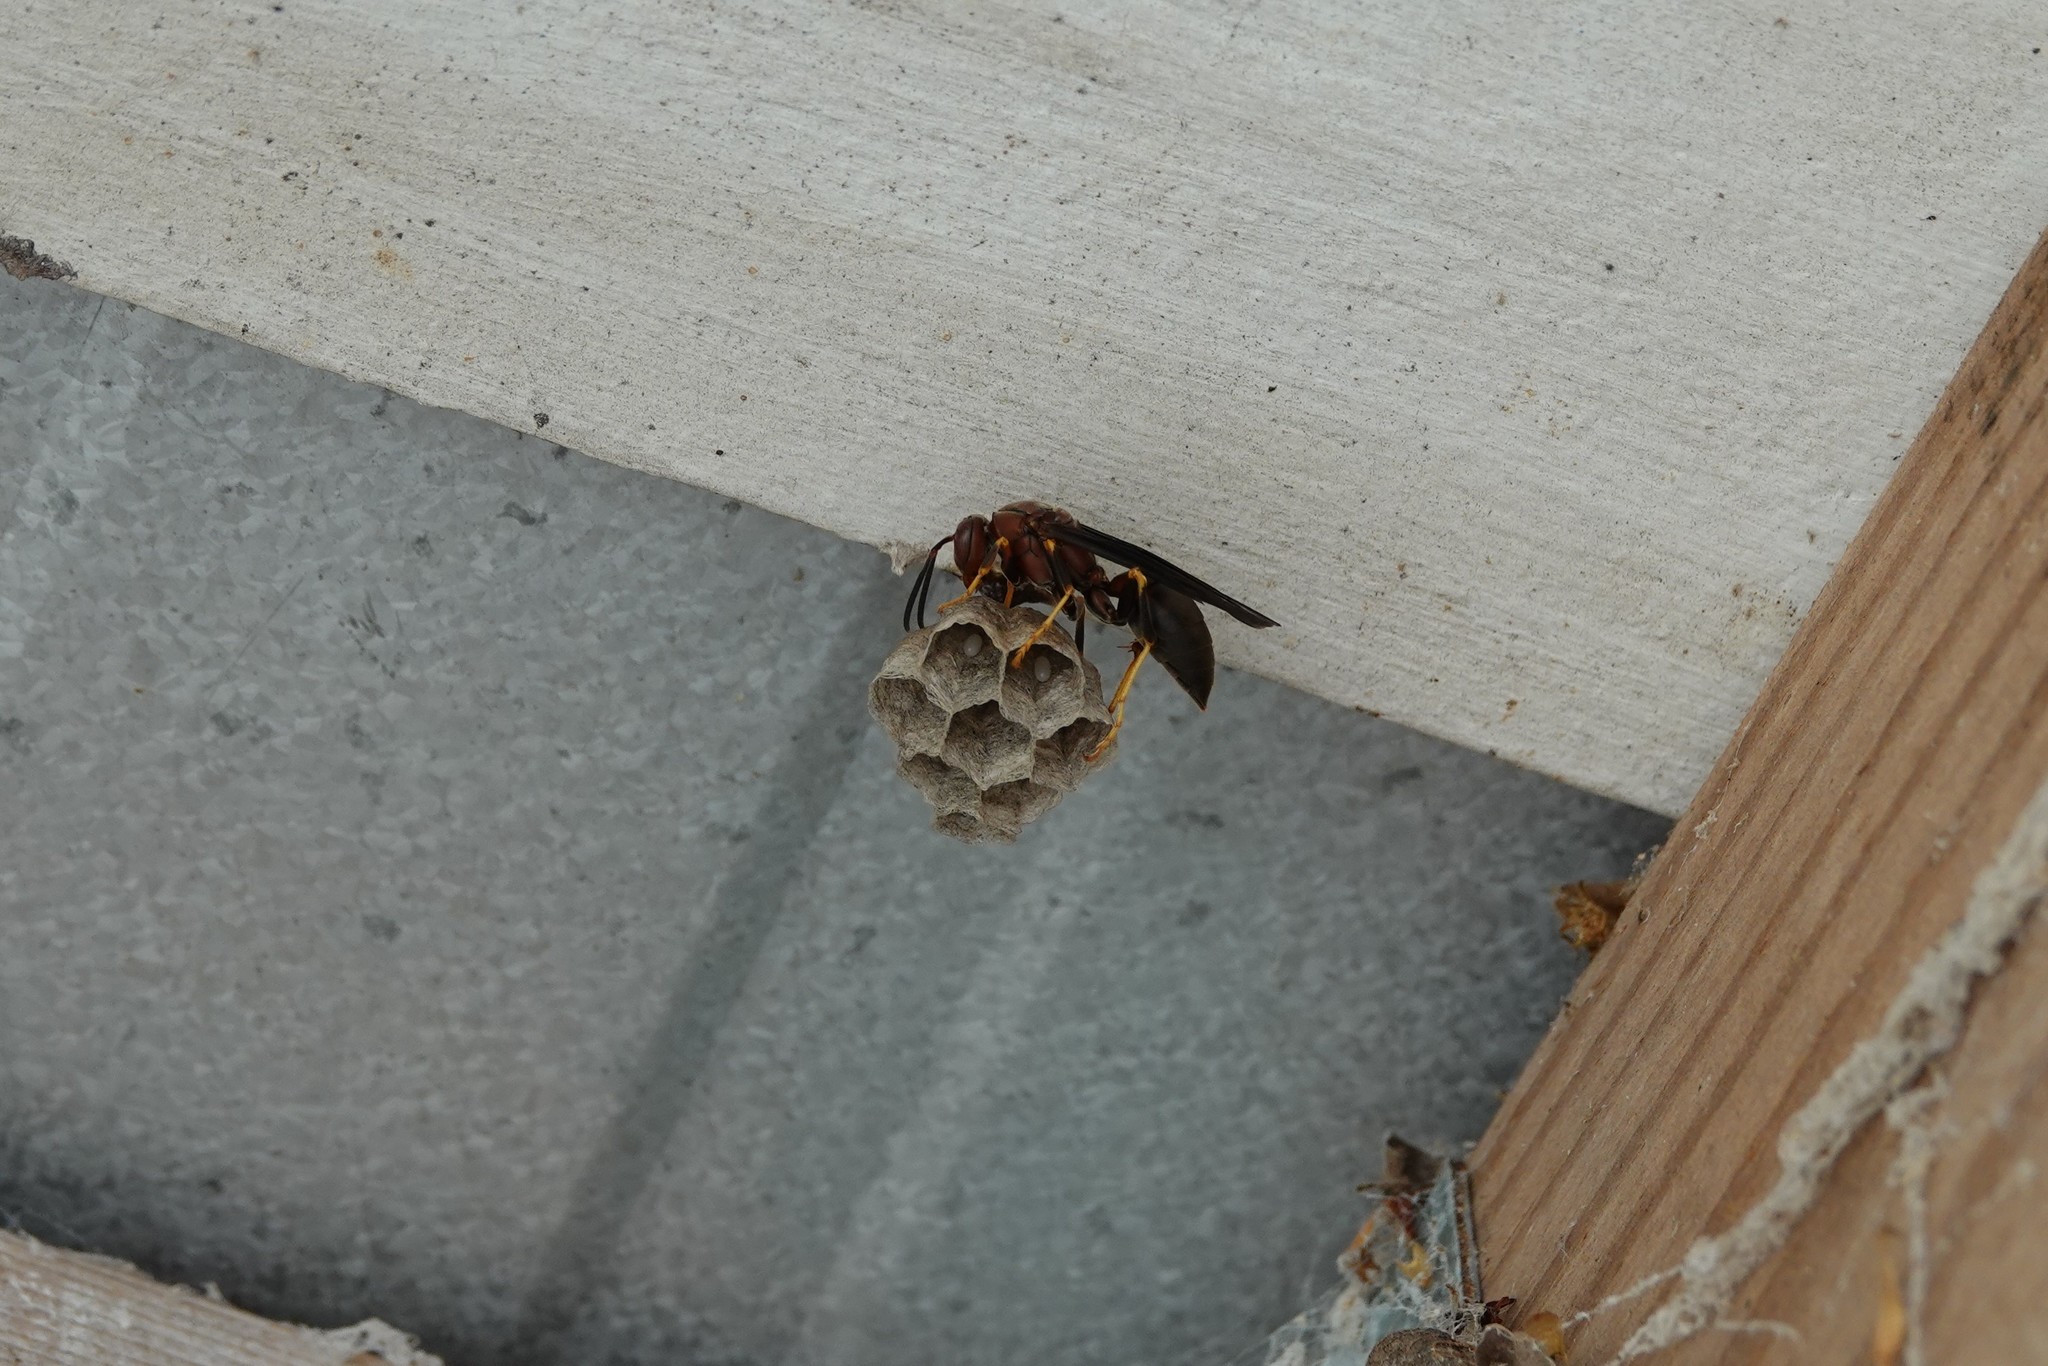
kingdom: Animalia
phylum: Arthropoda
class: Insecta
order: Hymenoptera
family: Eumenidae
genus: Polistes
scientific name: Polistes metricus
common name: Metric paper wasp
